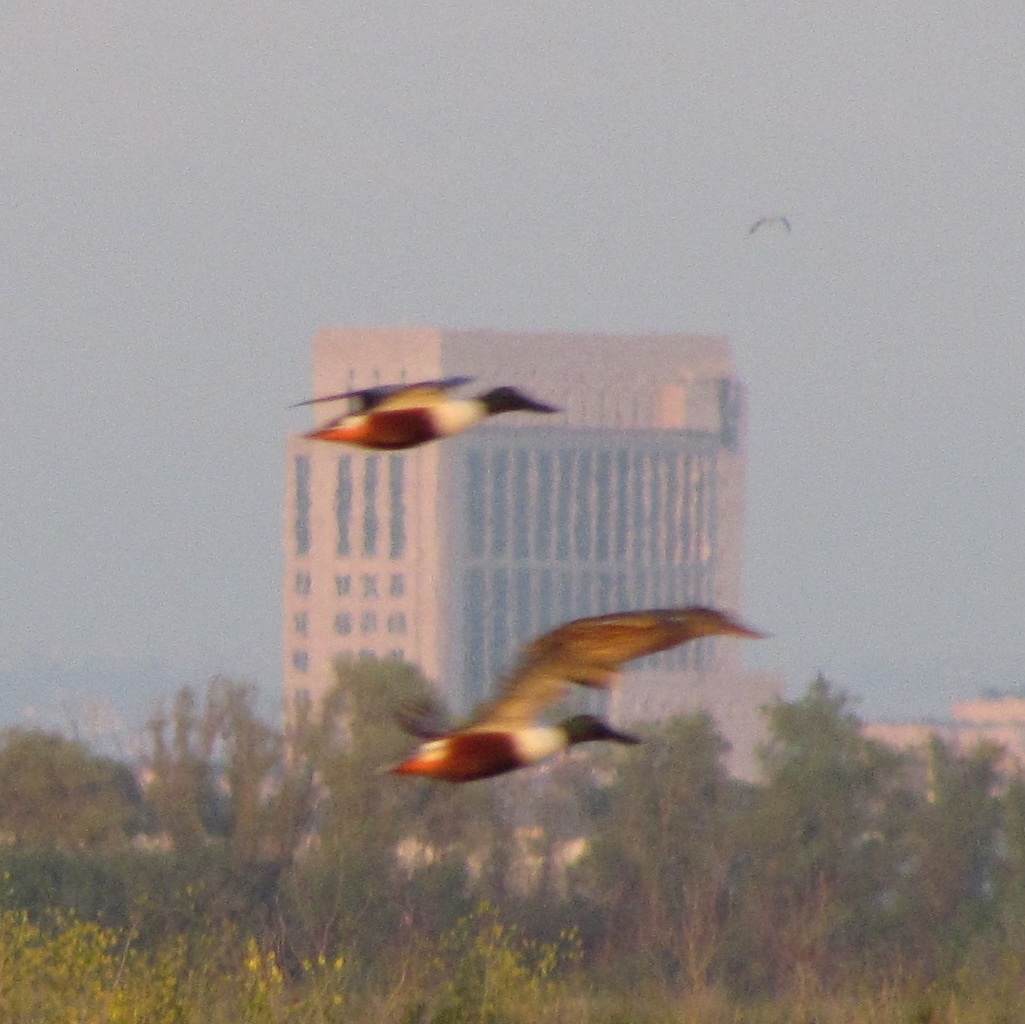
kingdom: Animalia
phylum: Chordata
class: Aves
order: Anseriformes
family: Anatidae
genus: Spatula
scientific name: Spatula clypeata
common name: Northern shoveler
